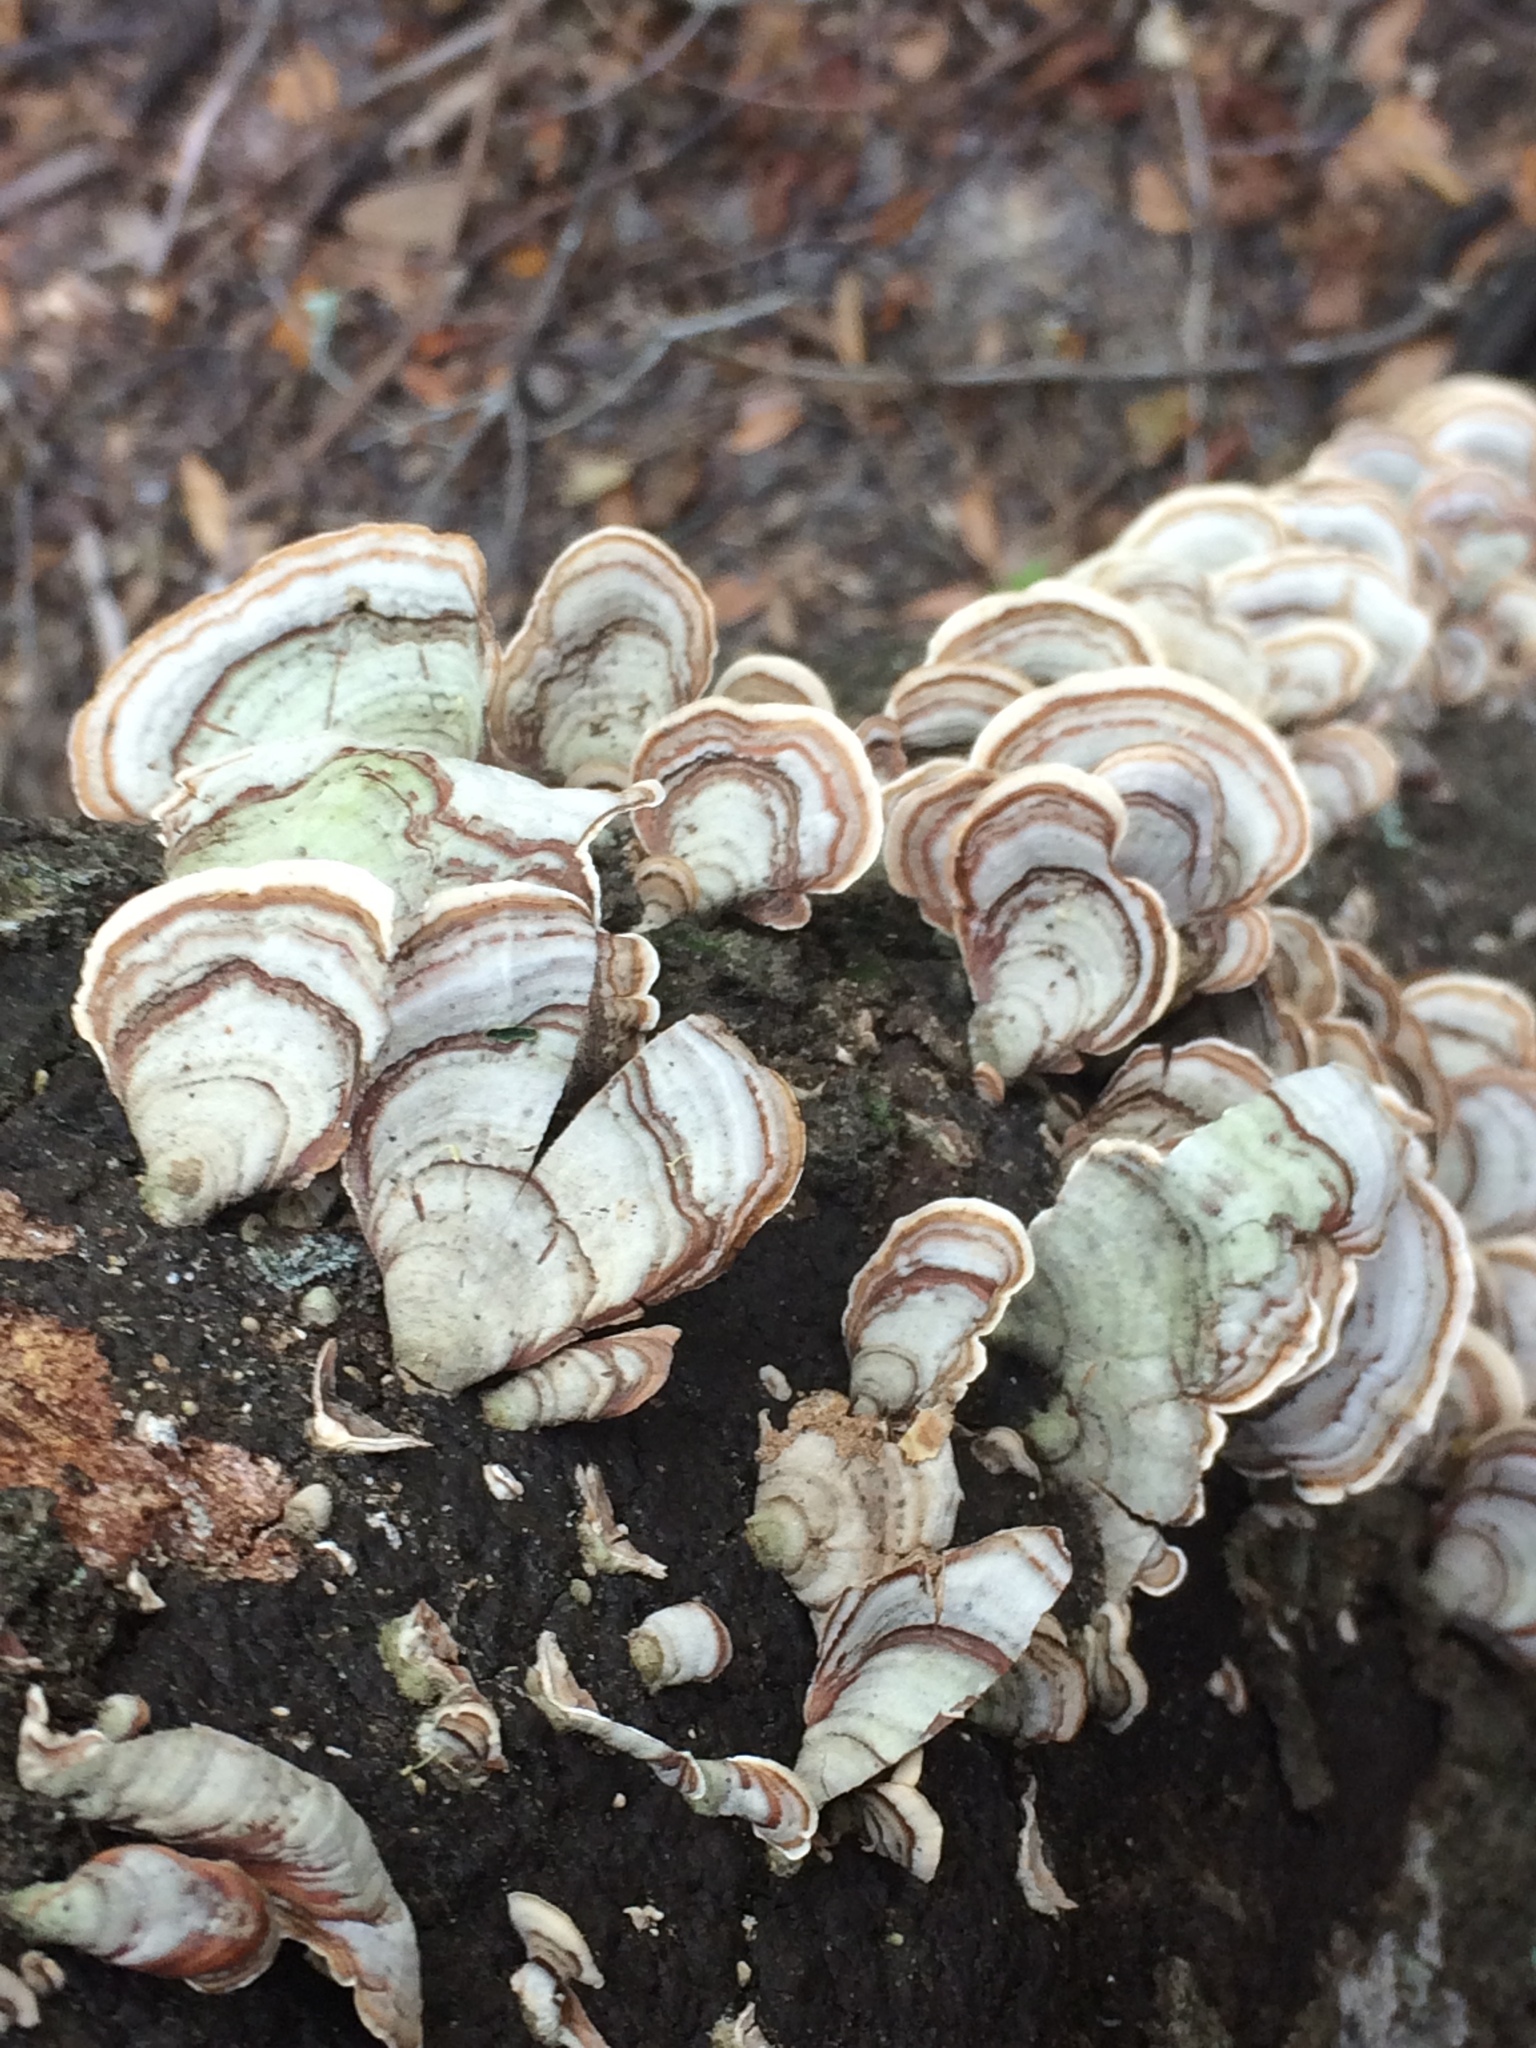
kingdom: Fungi
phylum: Basidiomycota
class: Agaricomycetes
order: Russulales
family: Stereaceae
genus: Stereum
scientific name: Stereum ostrea
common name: False turkeytail
